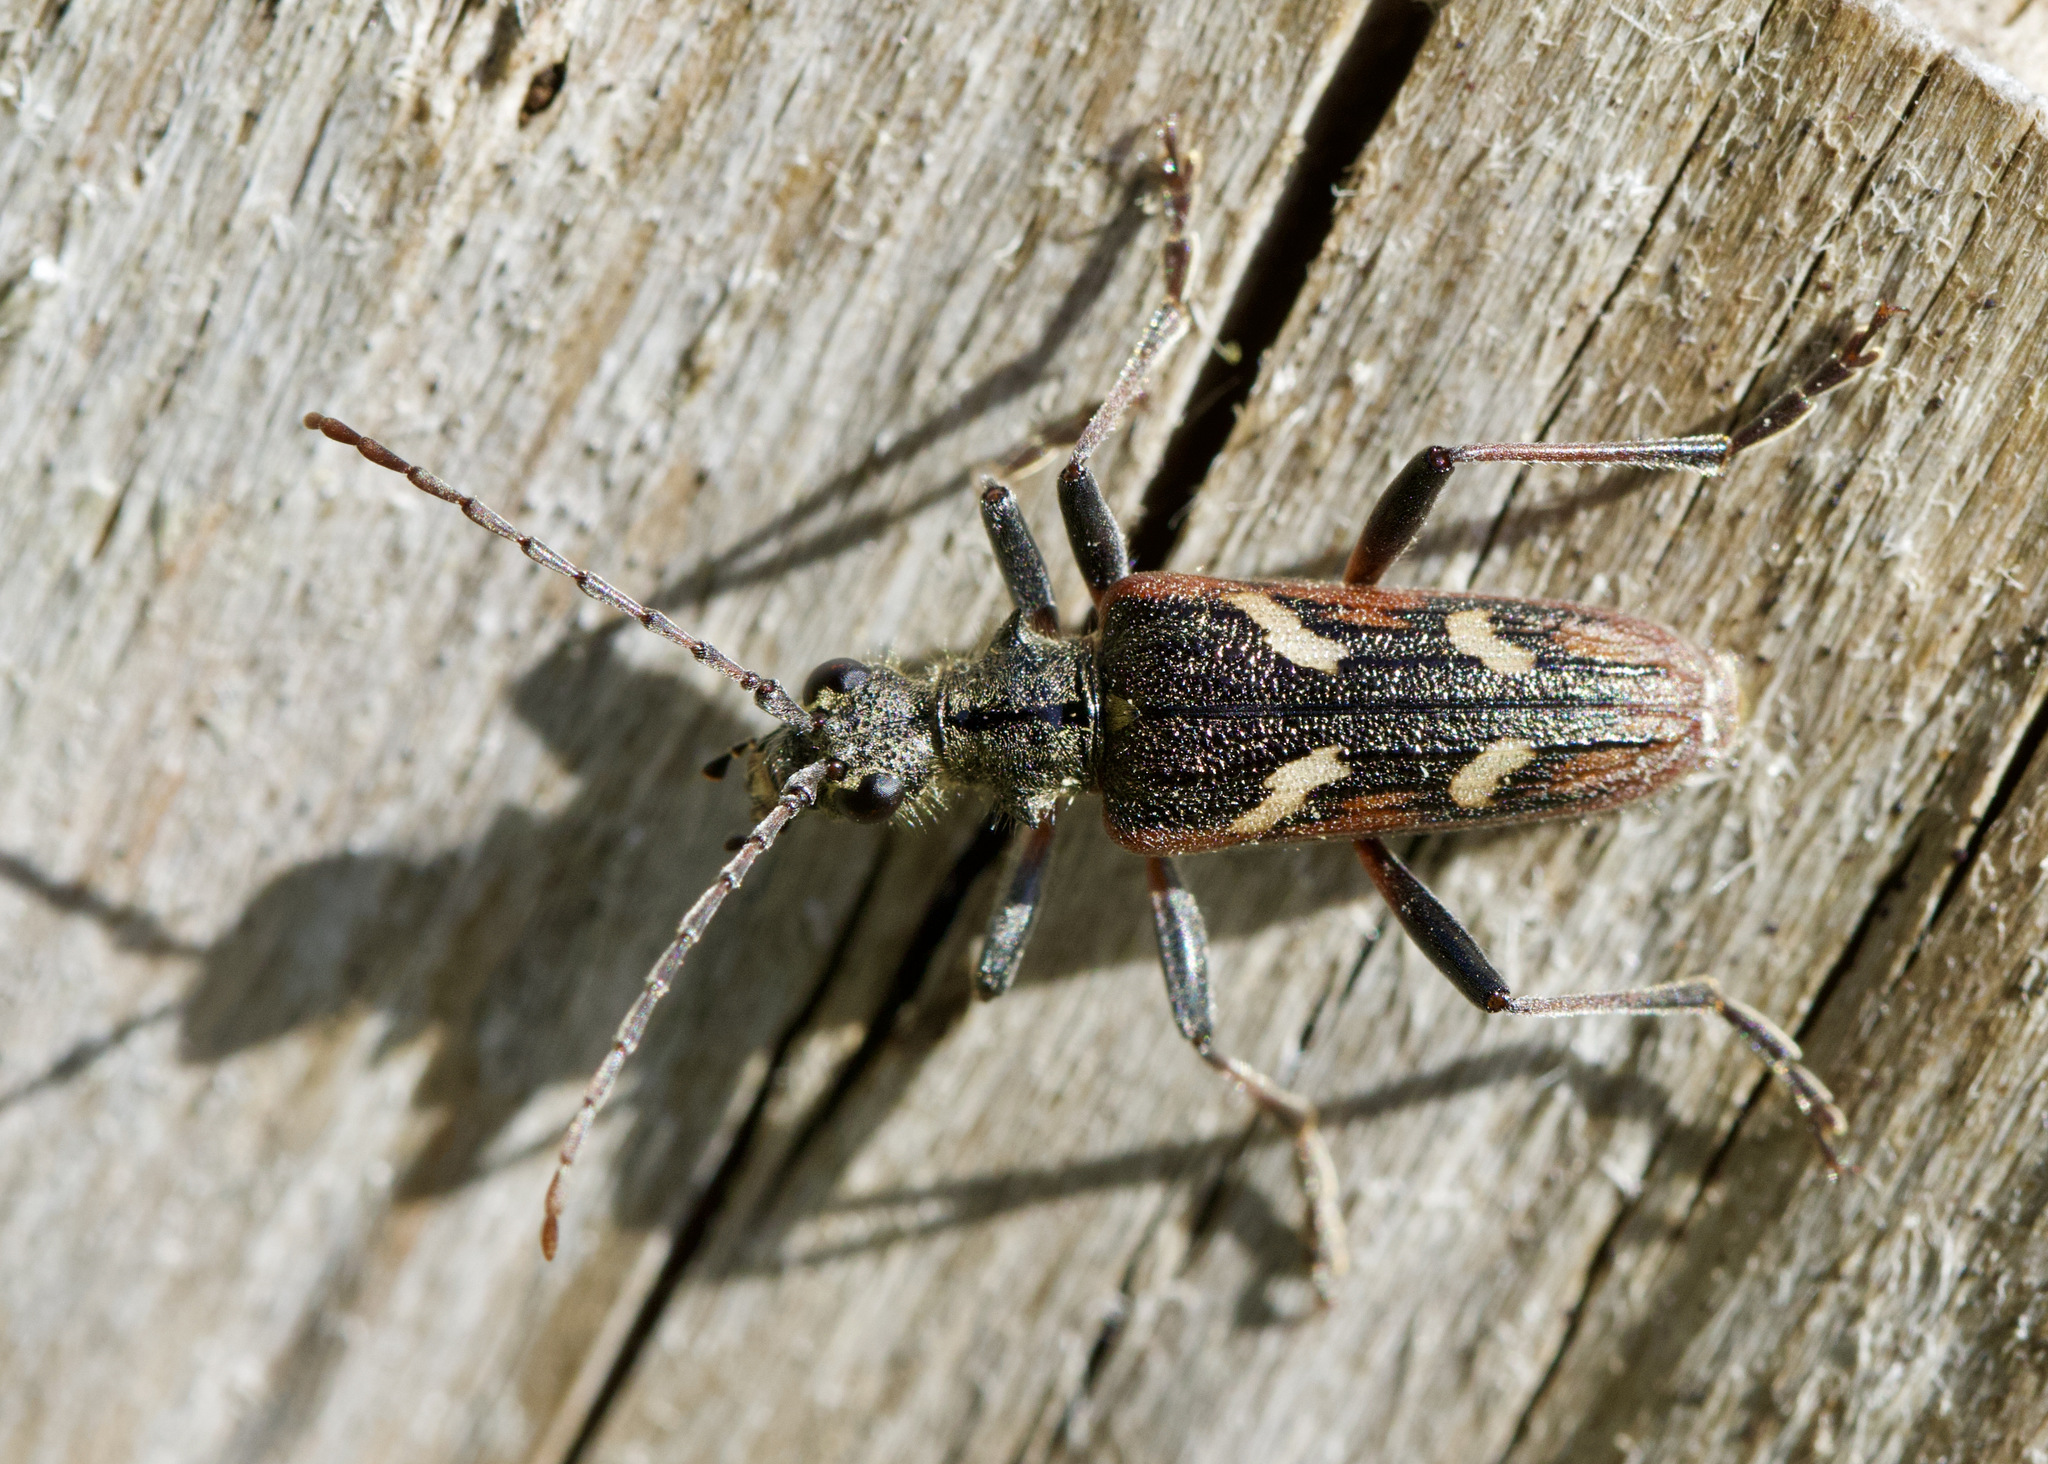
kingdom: Animalia
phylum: Arthropoda
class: Insecta
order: Coleoptera
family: Cerambycidae
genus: Rhagium
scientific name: Rhagium bifasciatum
